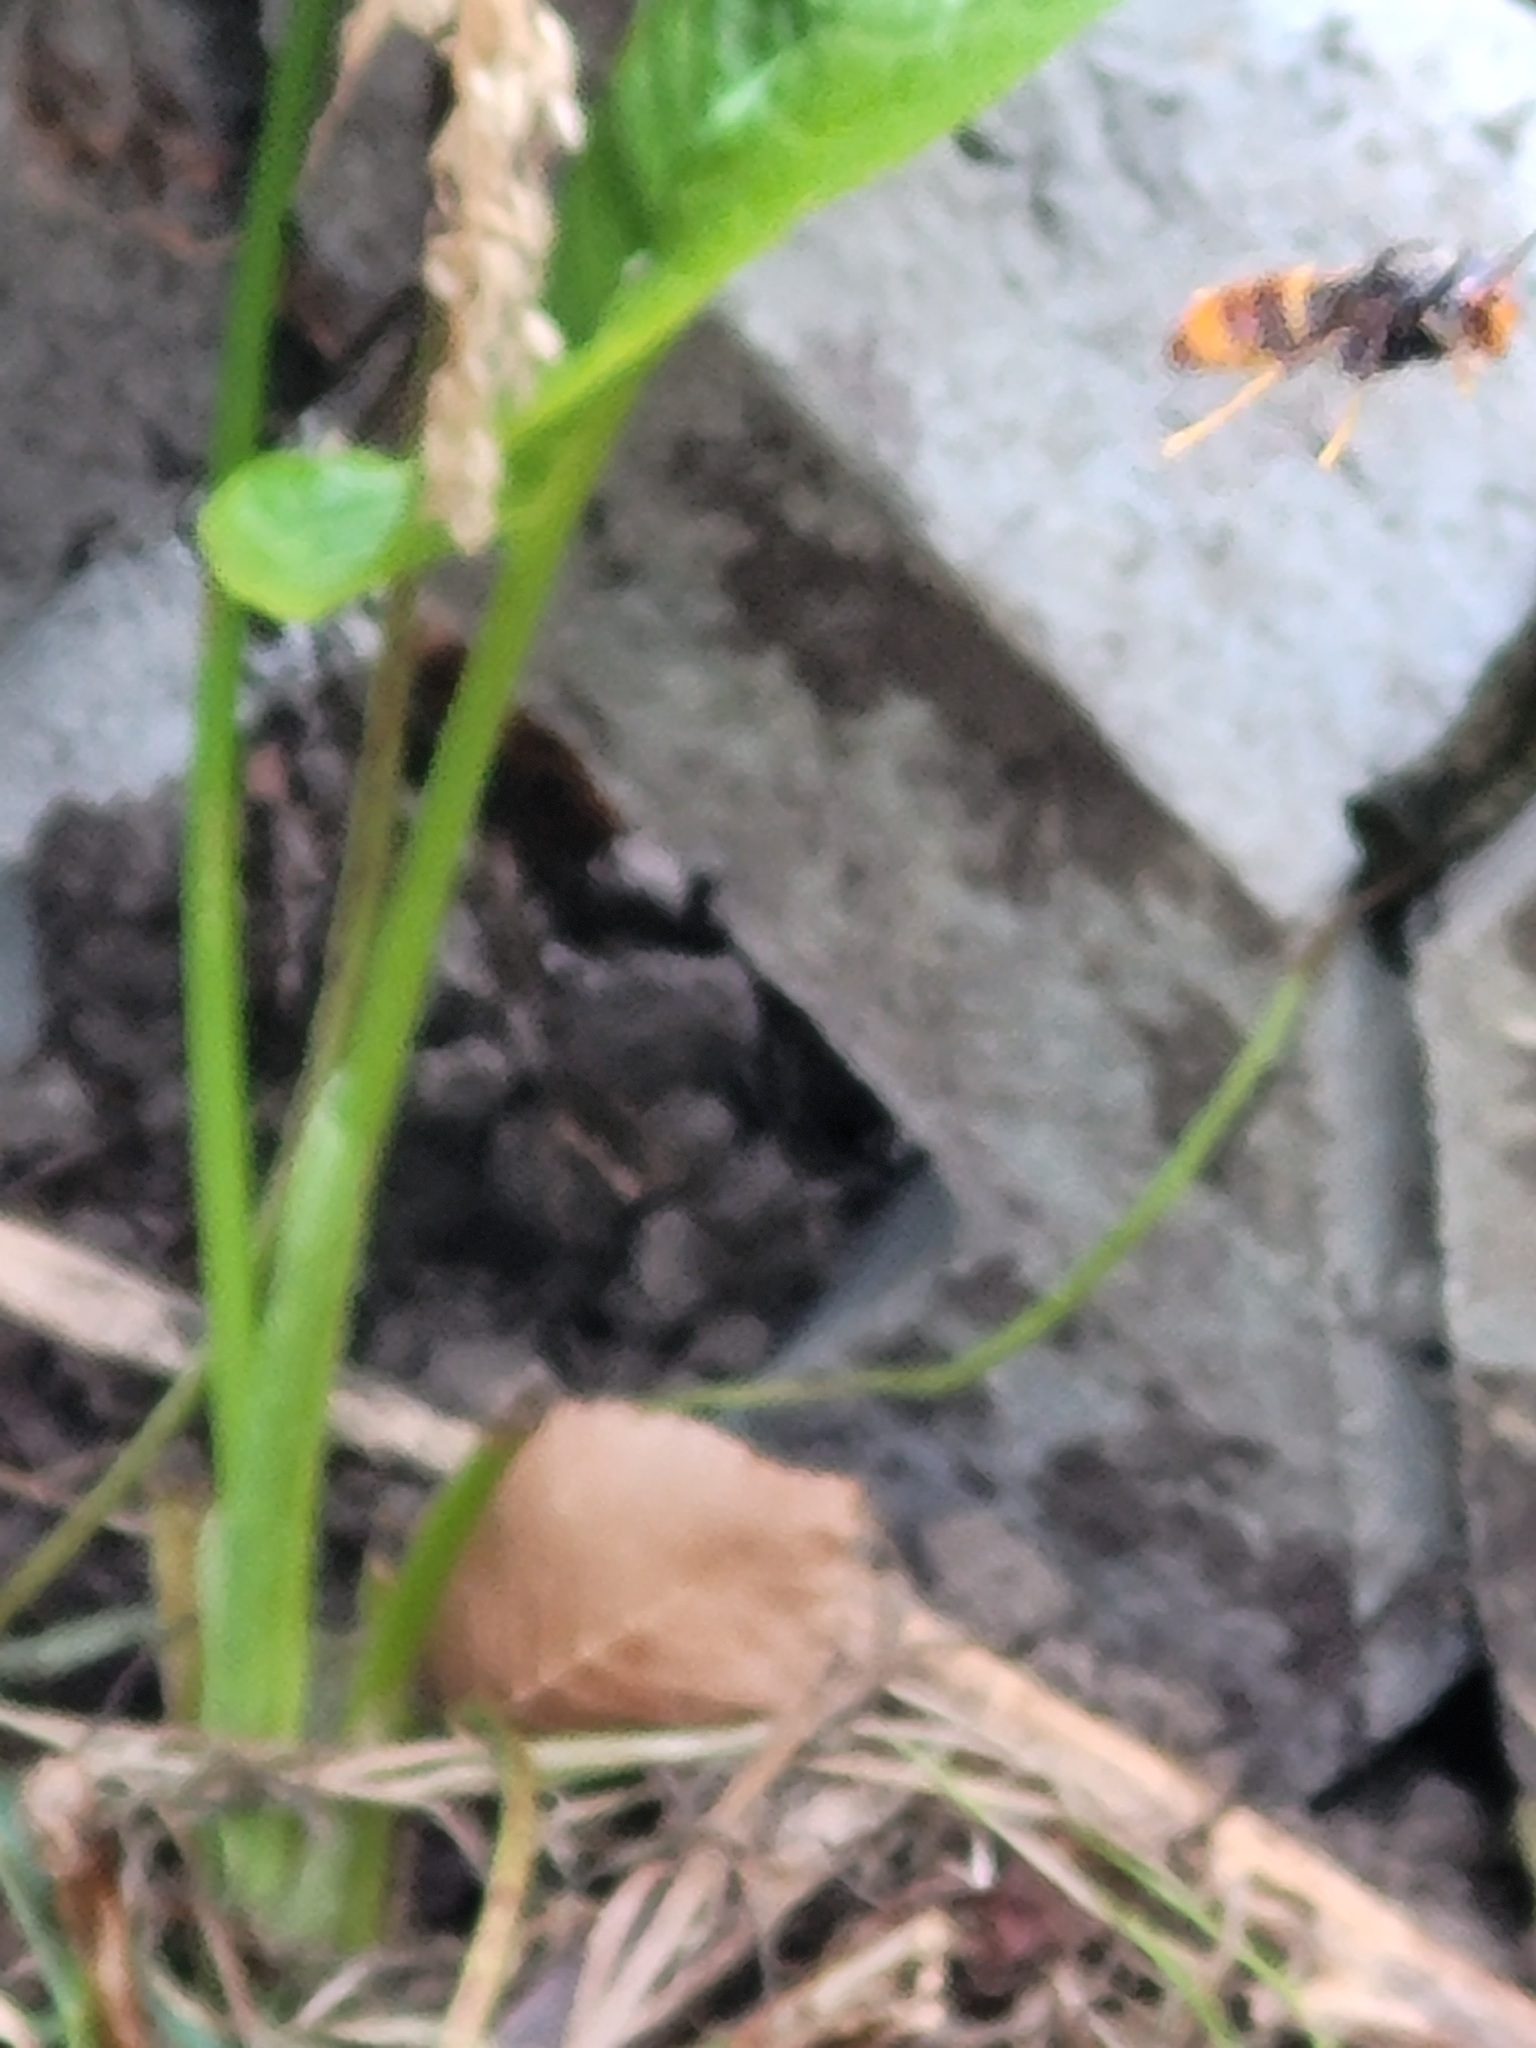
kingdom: Animalia
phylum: Arthropoda
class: Insecta
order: Hymenoptera
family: Vespidae
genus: Vespa
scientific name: Vespa velutina
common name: Asian hornet
